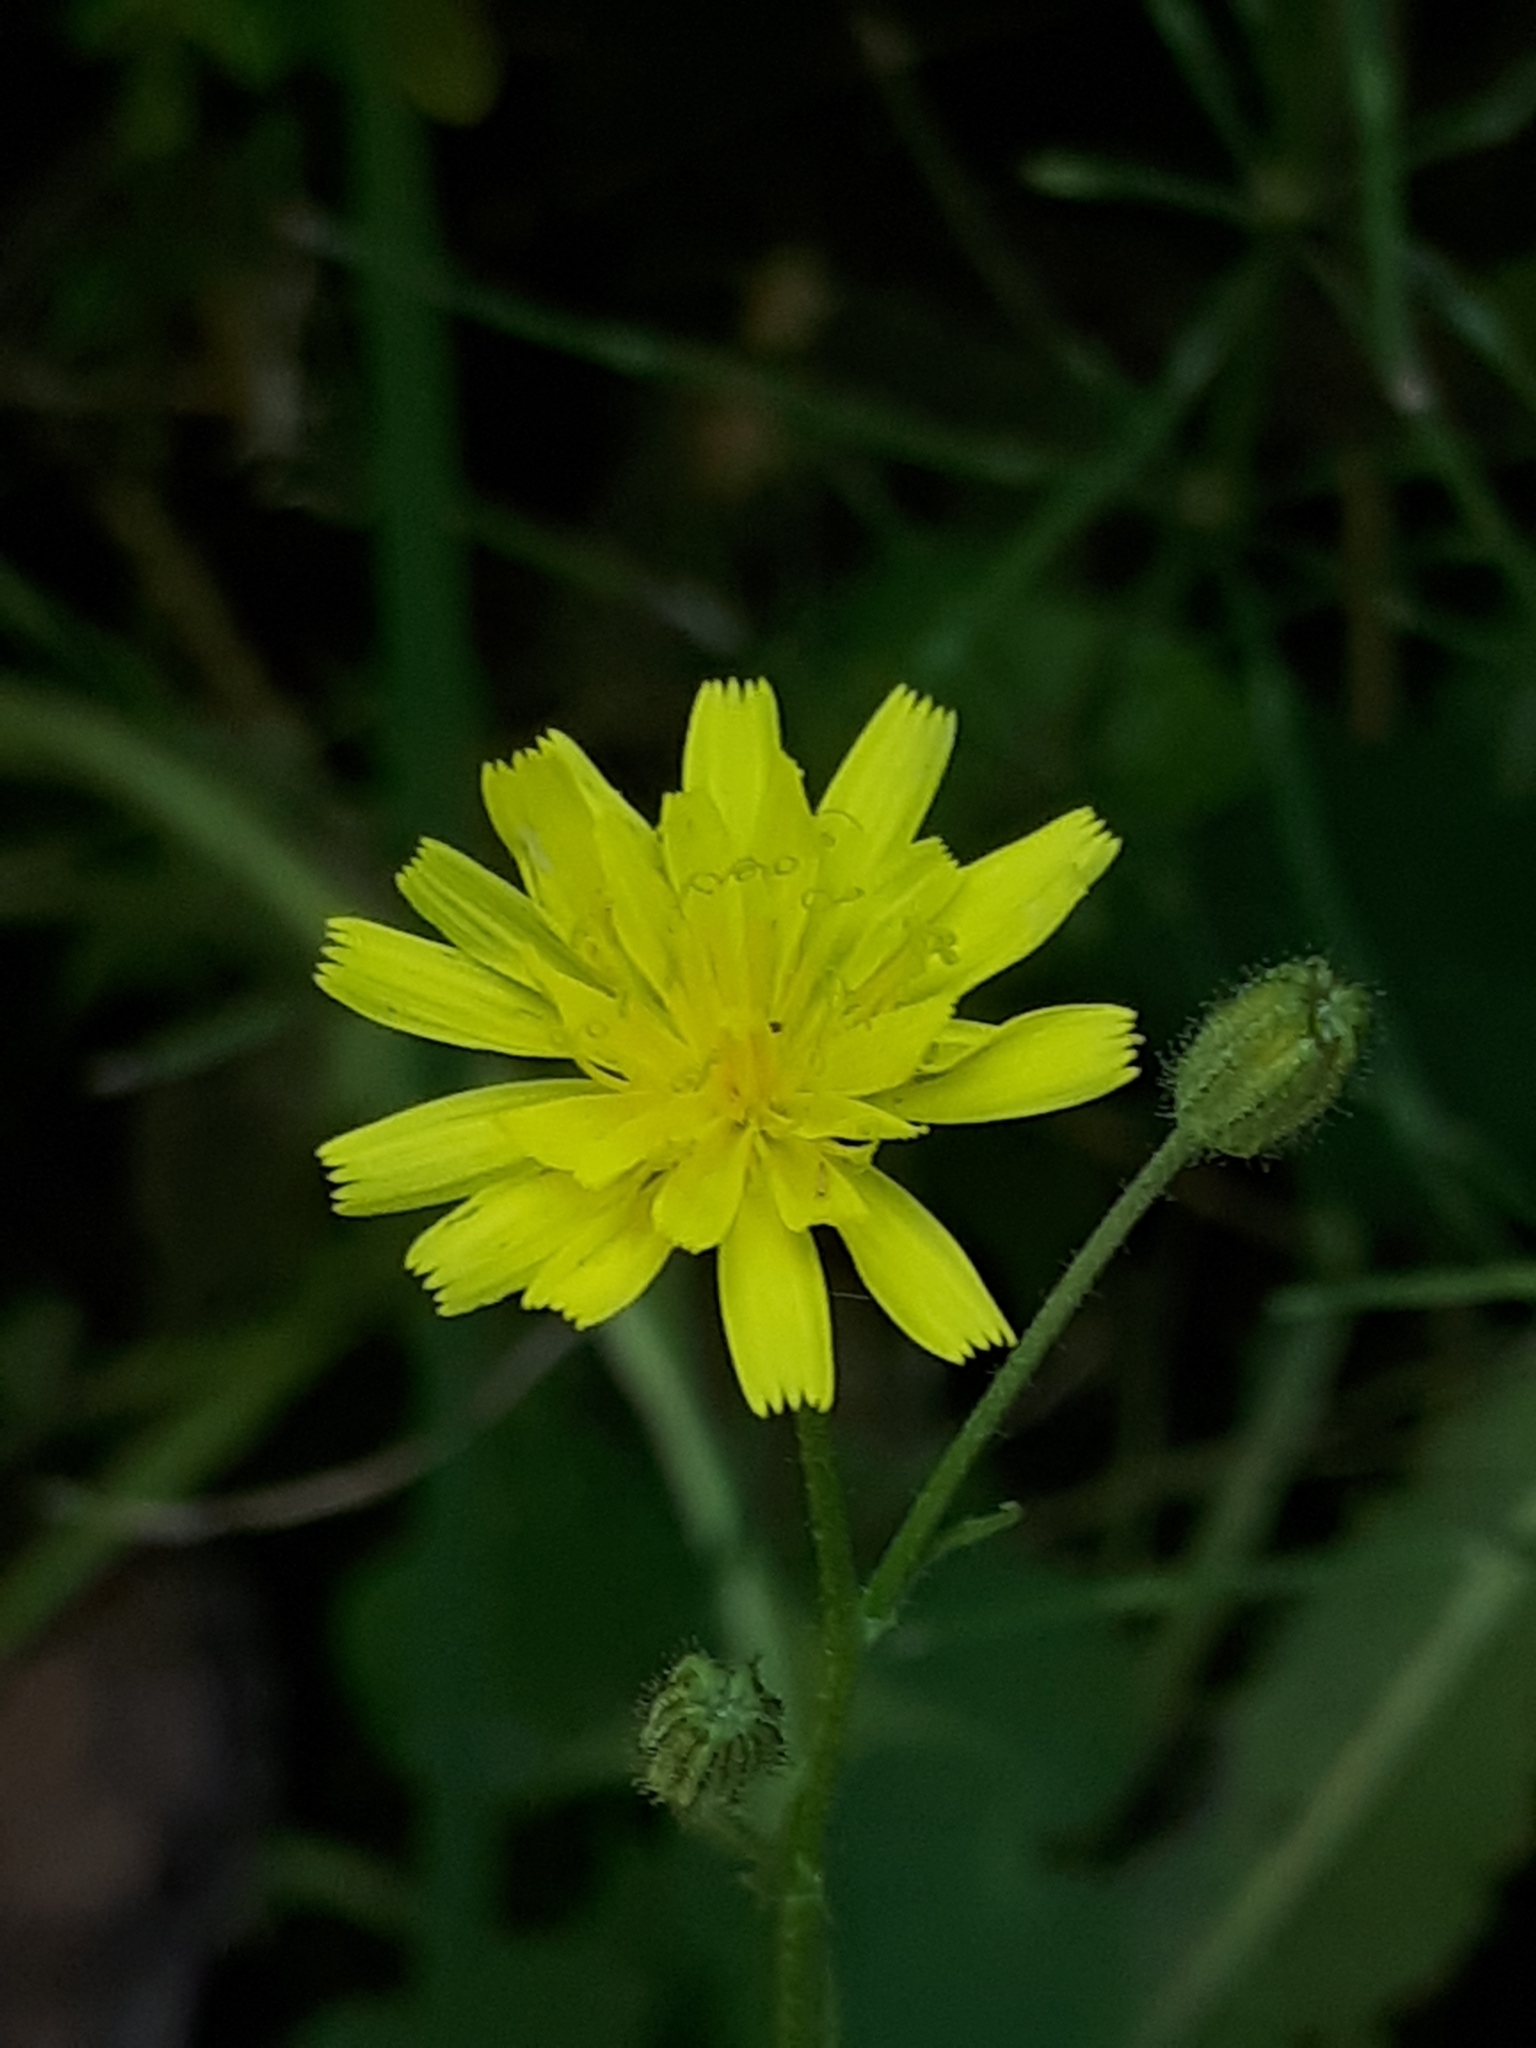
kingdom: Plantae
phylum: Tracheophyta
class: Magnoliopsida
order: Asterales
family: Asteraceae
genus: Crepis
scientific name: Crepis capillaris
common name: Smooth hawksbeard
